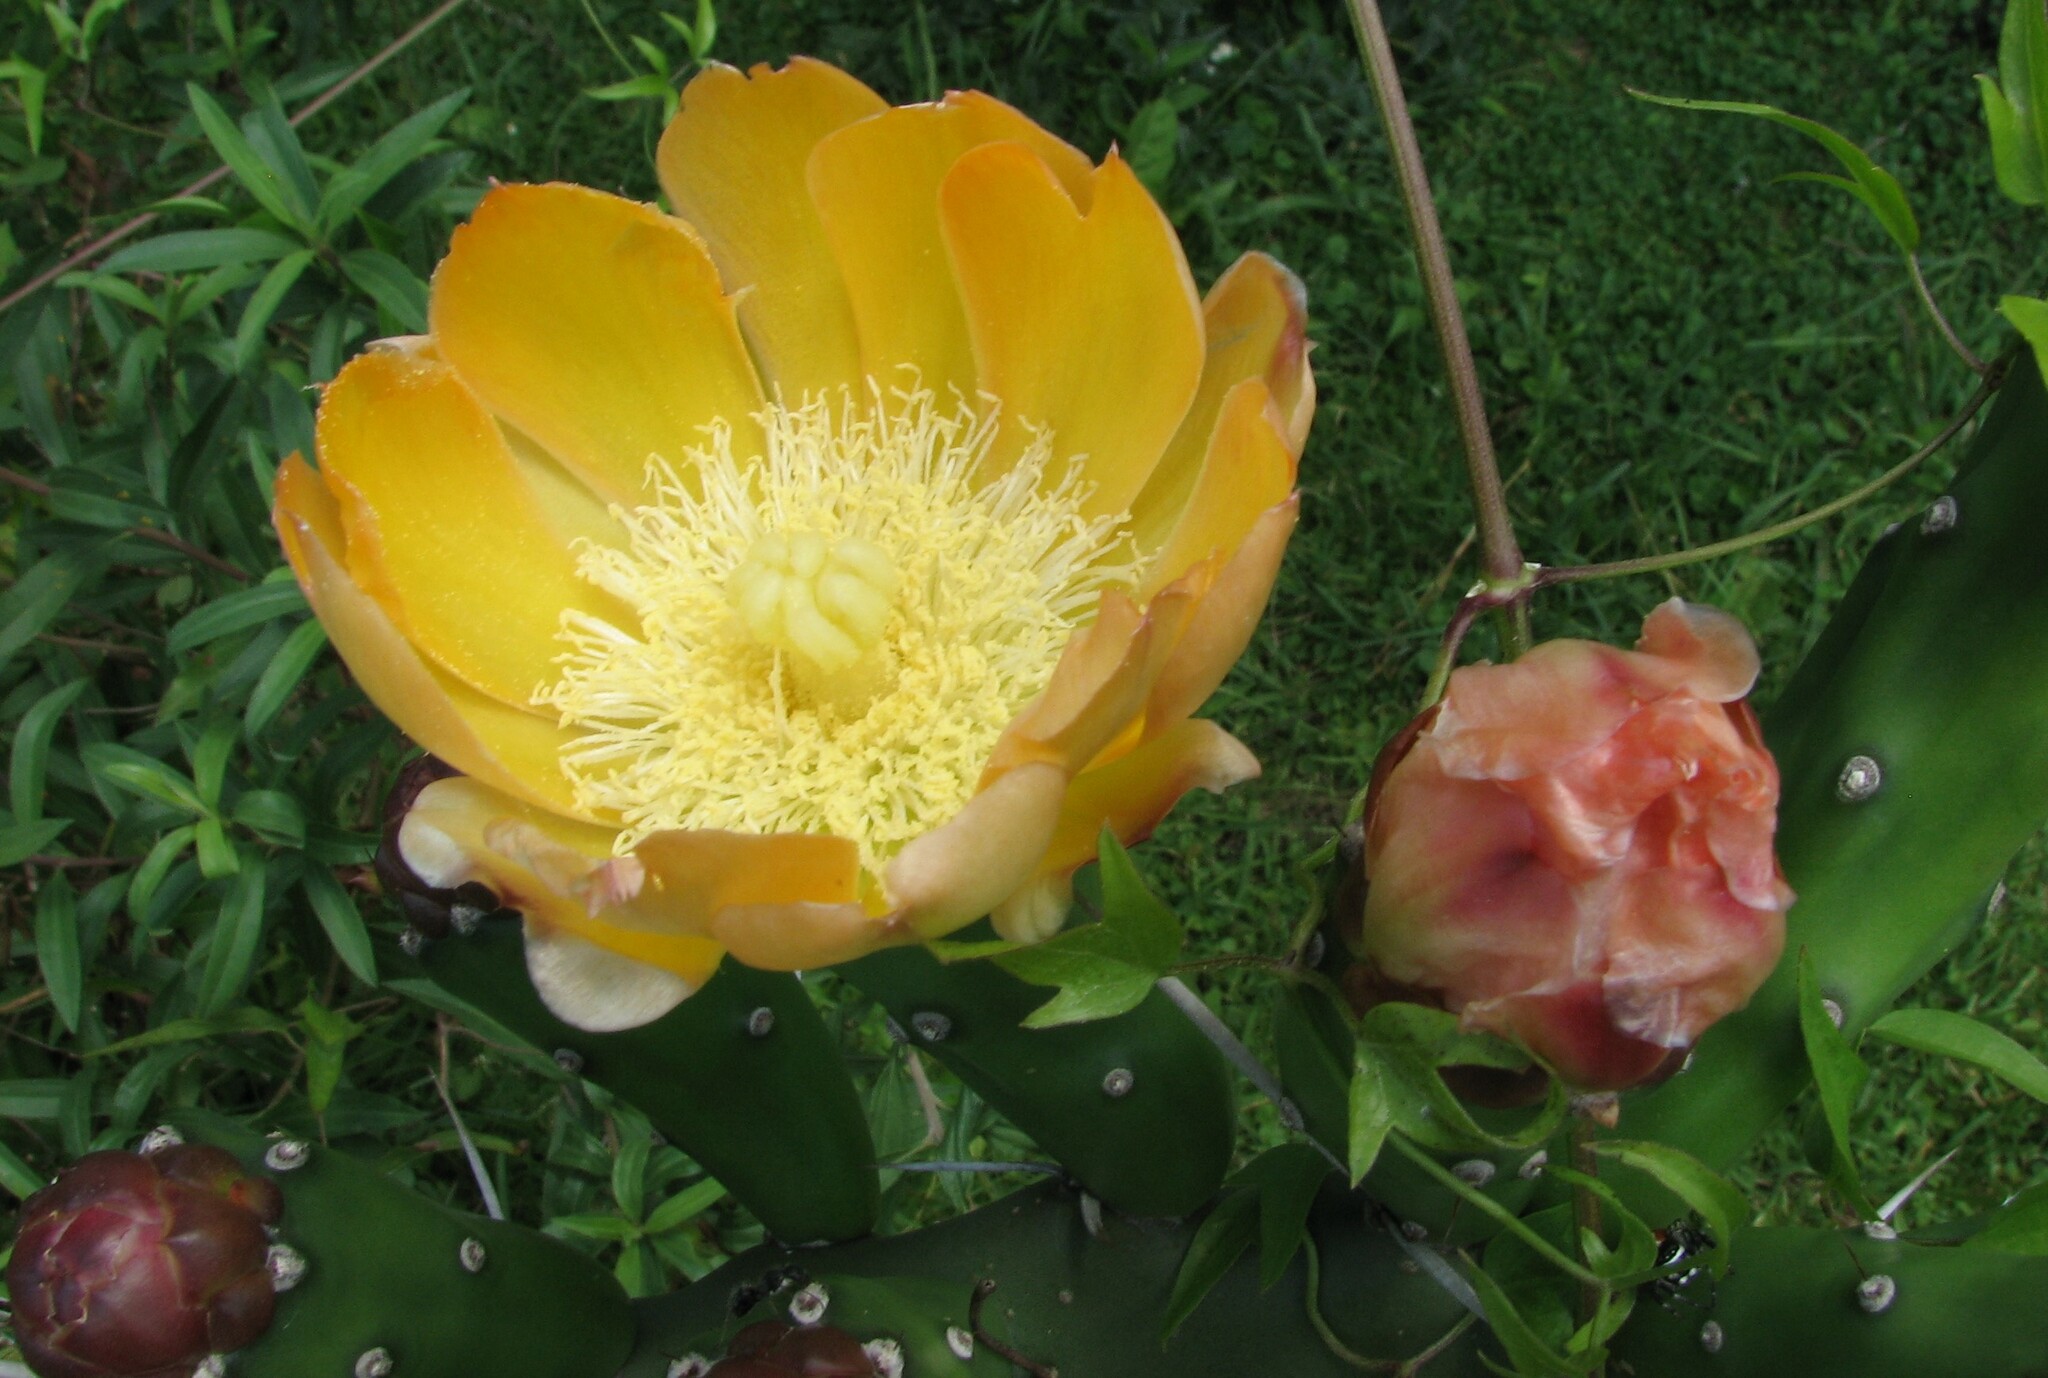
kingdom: Plantae
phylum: Tracheophyta
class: Magnoliopsida
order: Caryophyllales
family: Cactaceae
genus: Opuntia
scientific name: Opuntia elata
